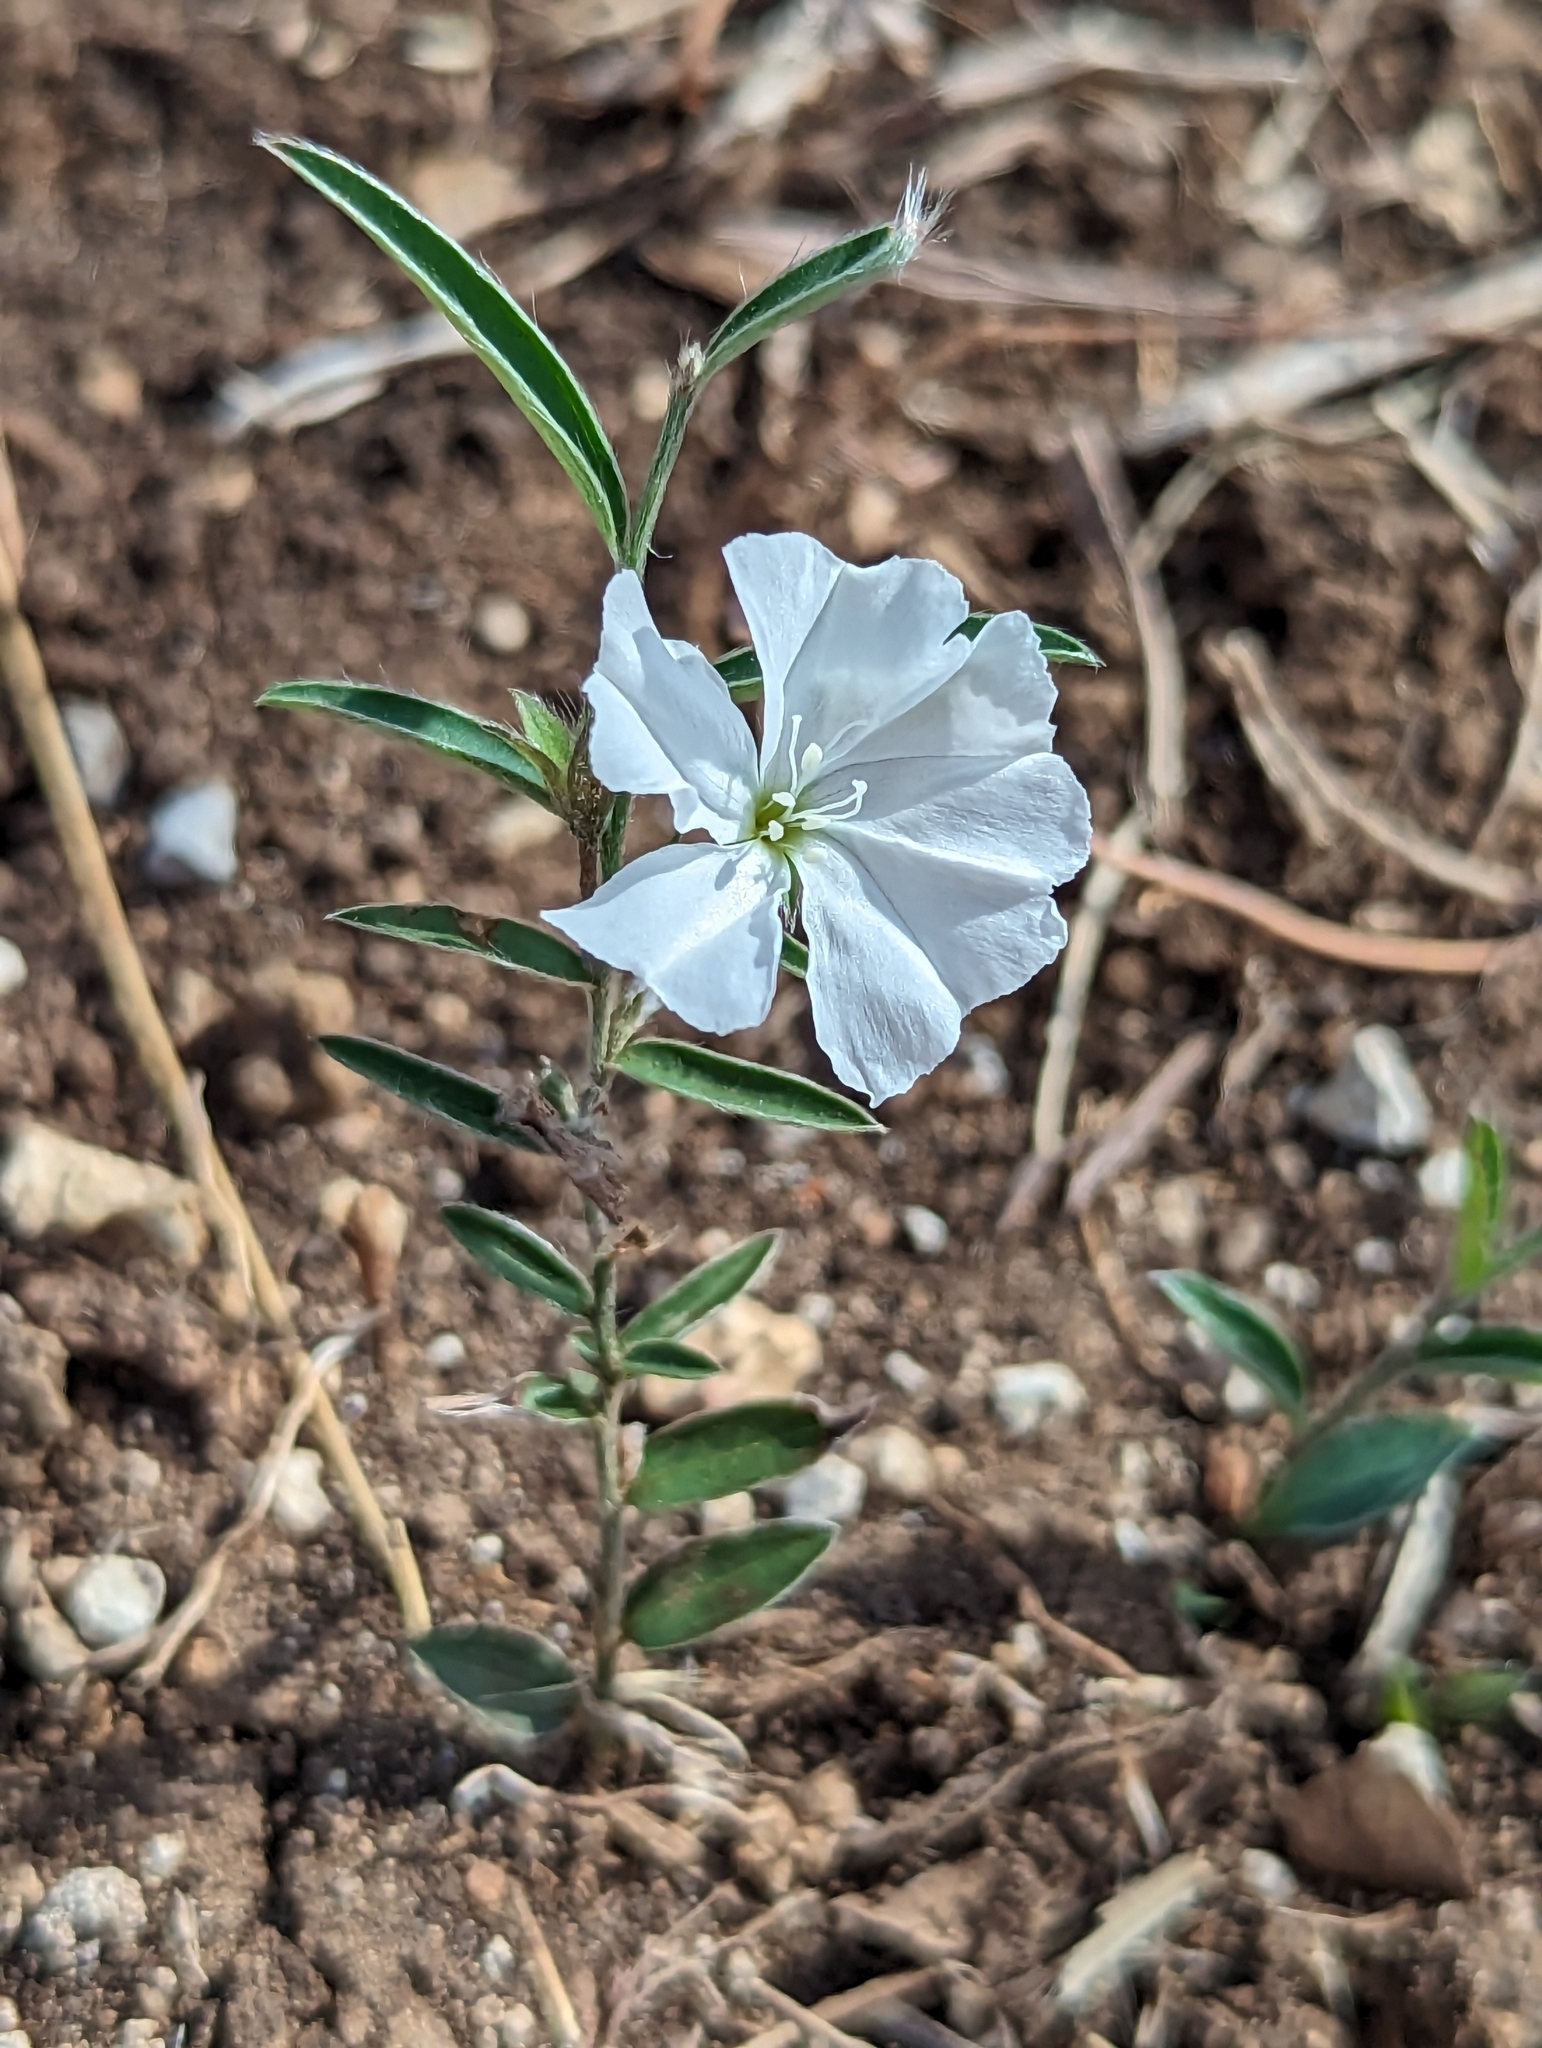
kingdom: Plantae
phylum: Tracheophyta
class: Magnoliopsida
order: Solanales
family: Convolvulaceae
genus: Evolvulus
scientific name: Evolvulus sericeus
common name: Blue dots
